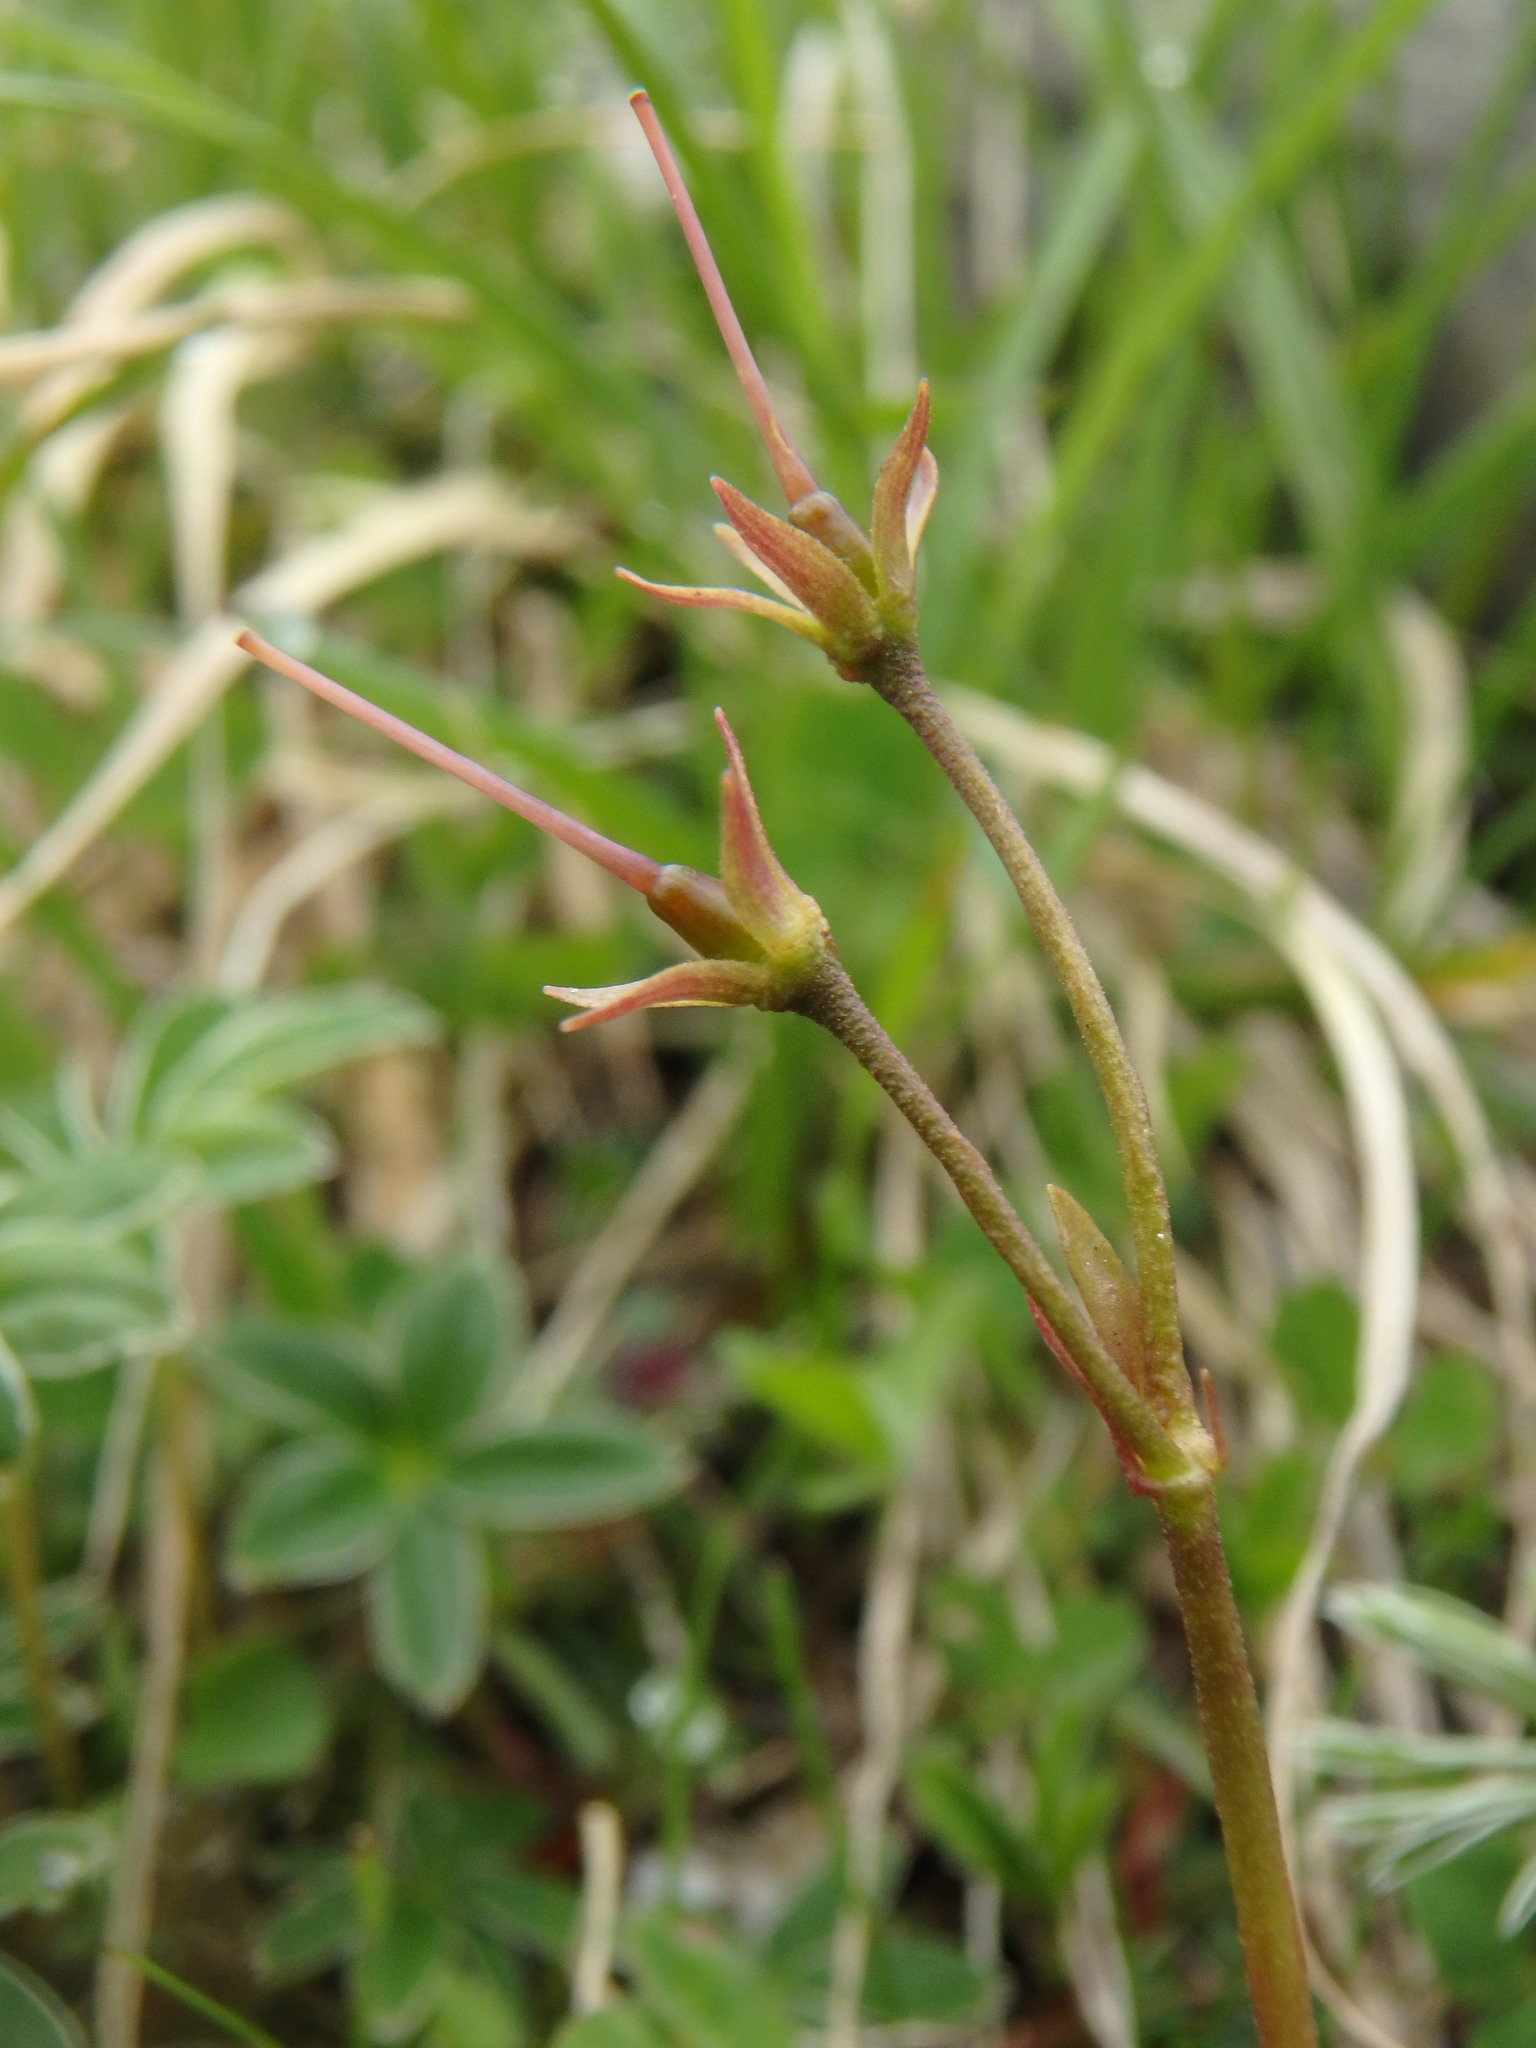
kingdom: Plantae
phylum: Tracheophyta
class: Magnoliopsida
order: Ericales
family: Primulaceae
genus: Soldanella
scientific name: Soldanella alpina
